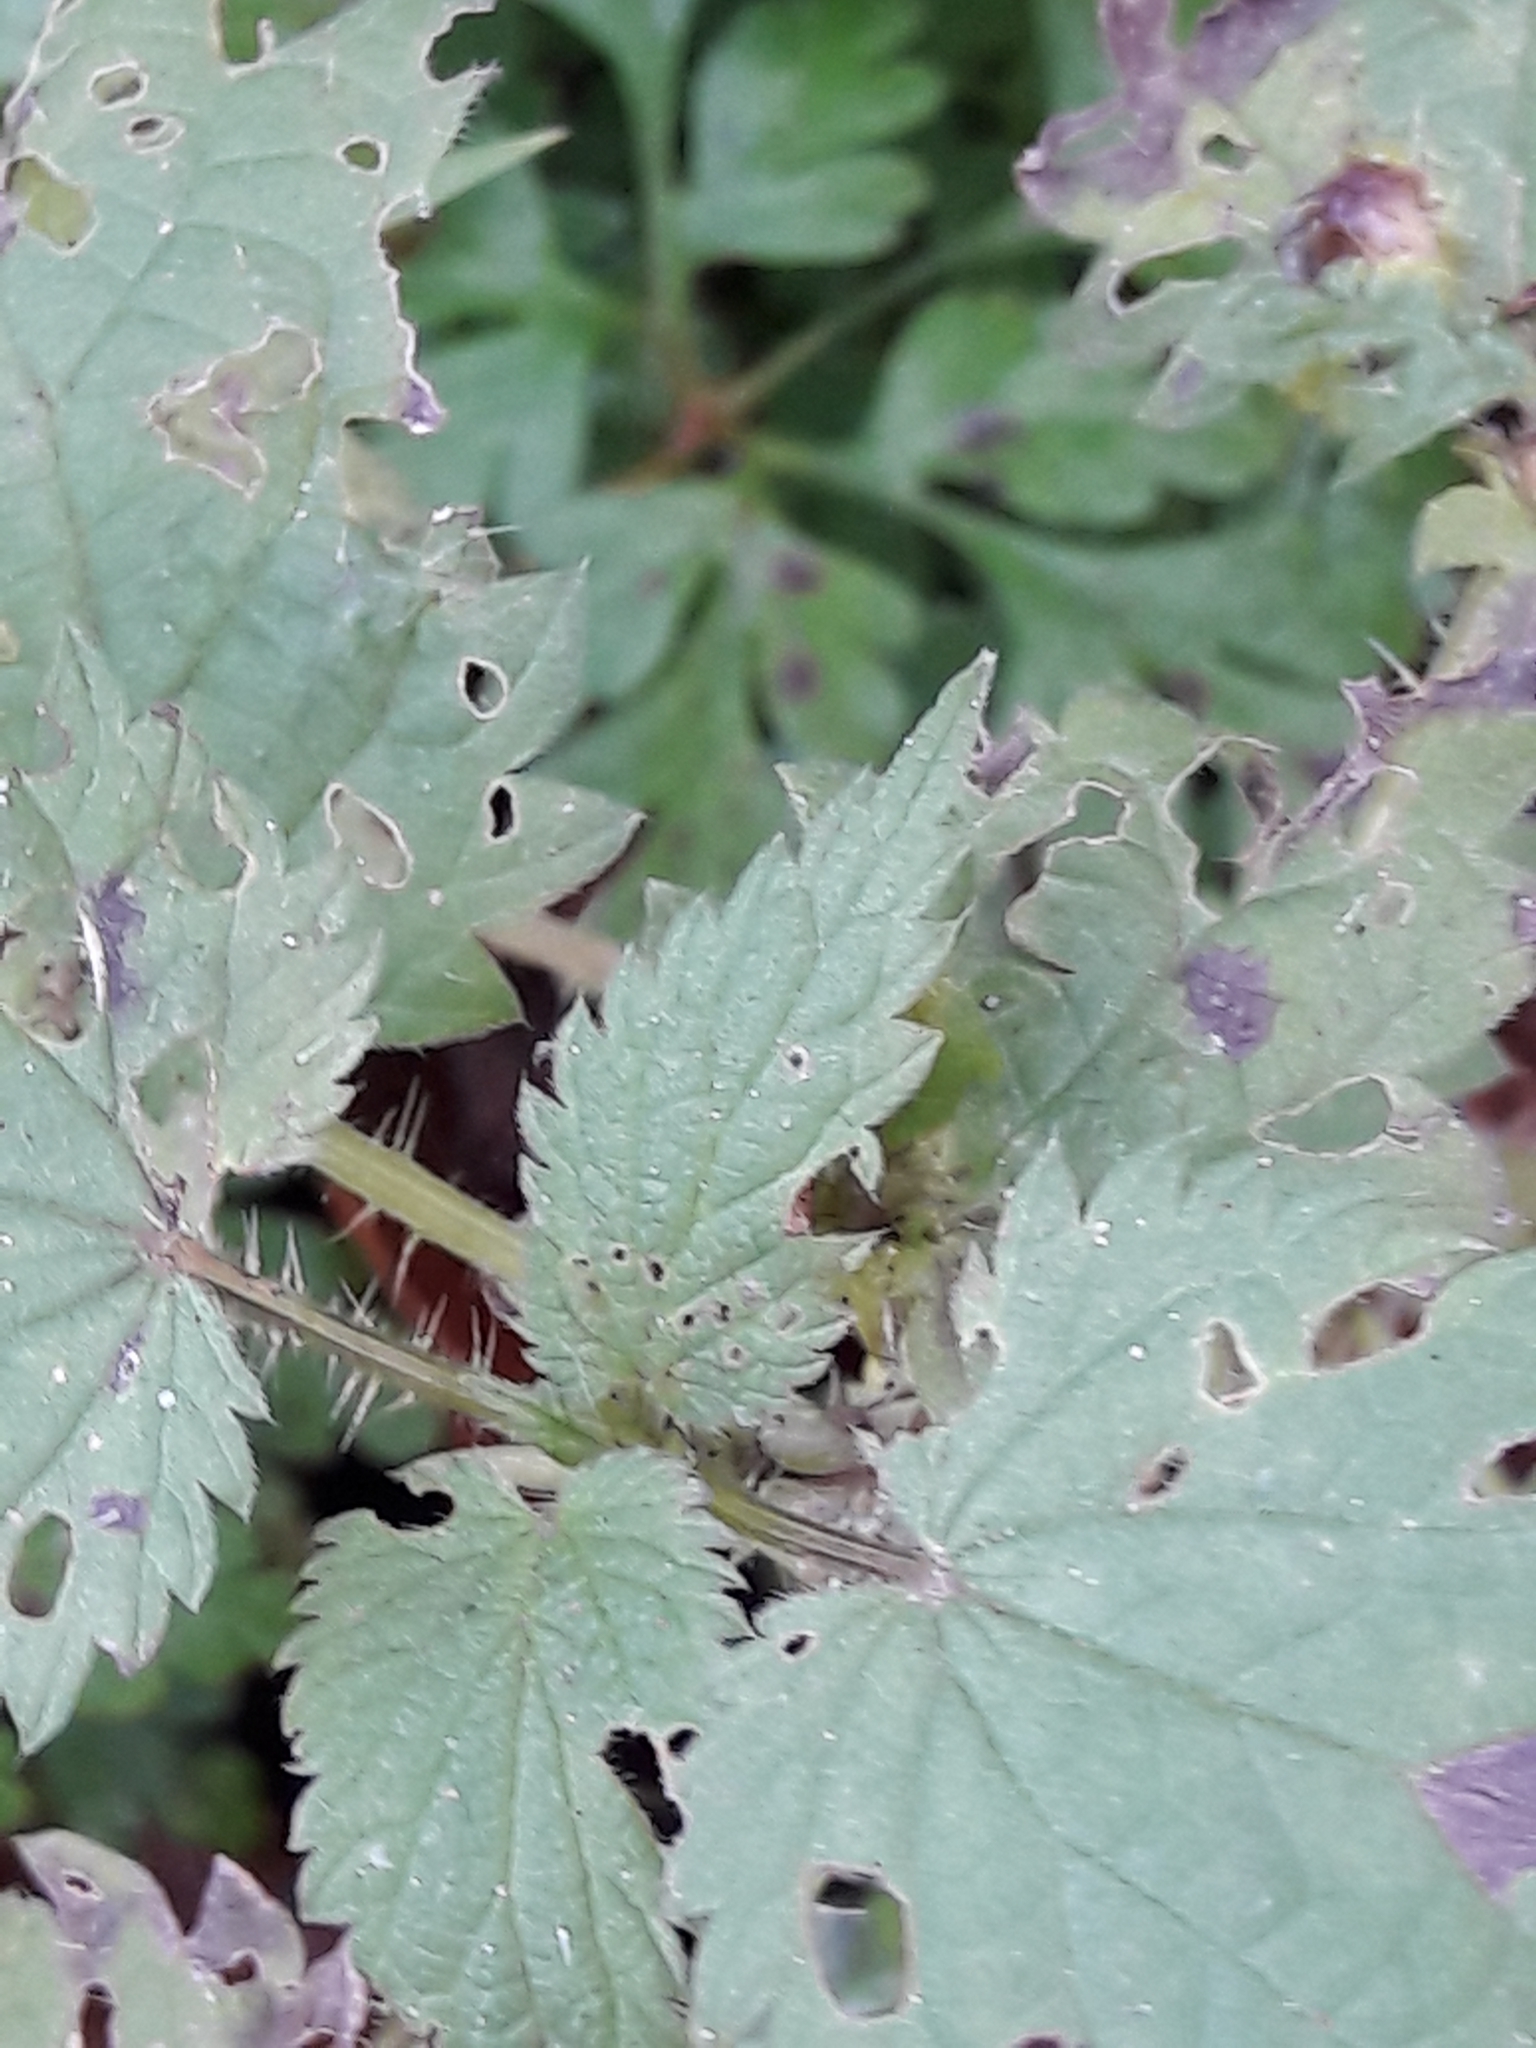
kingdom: Plantae
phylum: Tracheophyta
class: Magnoliopsida
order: Rosales
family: Urticaceae
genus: Urtica
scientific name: Urtica dioica
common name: Common nettle
